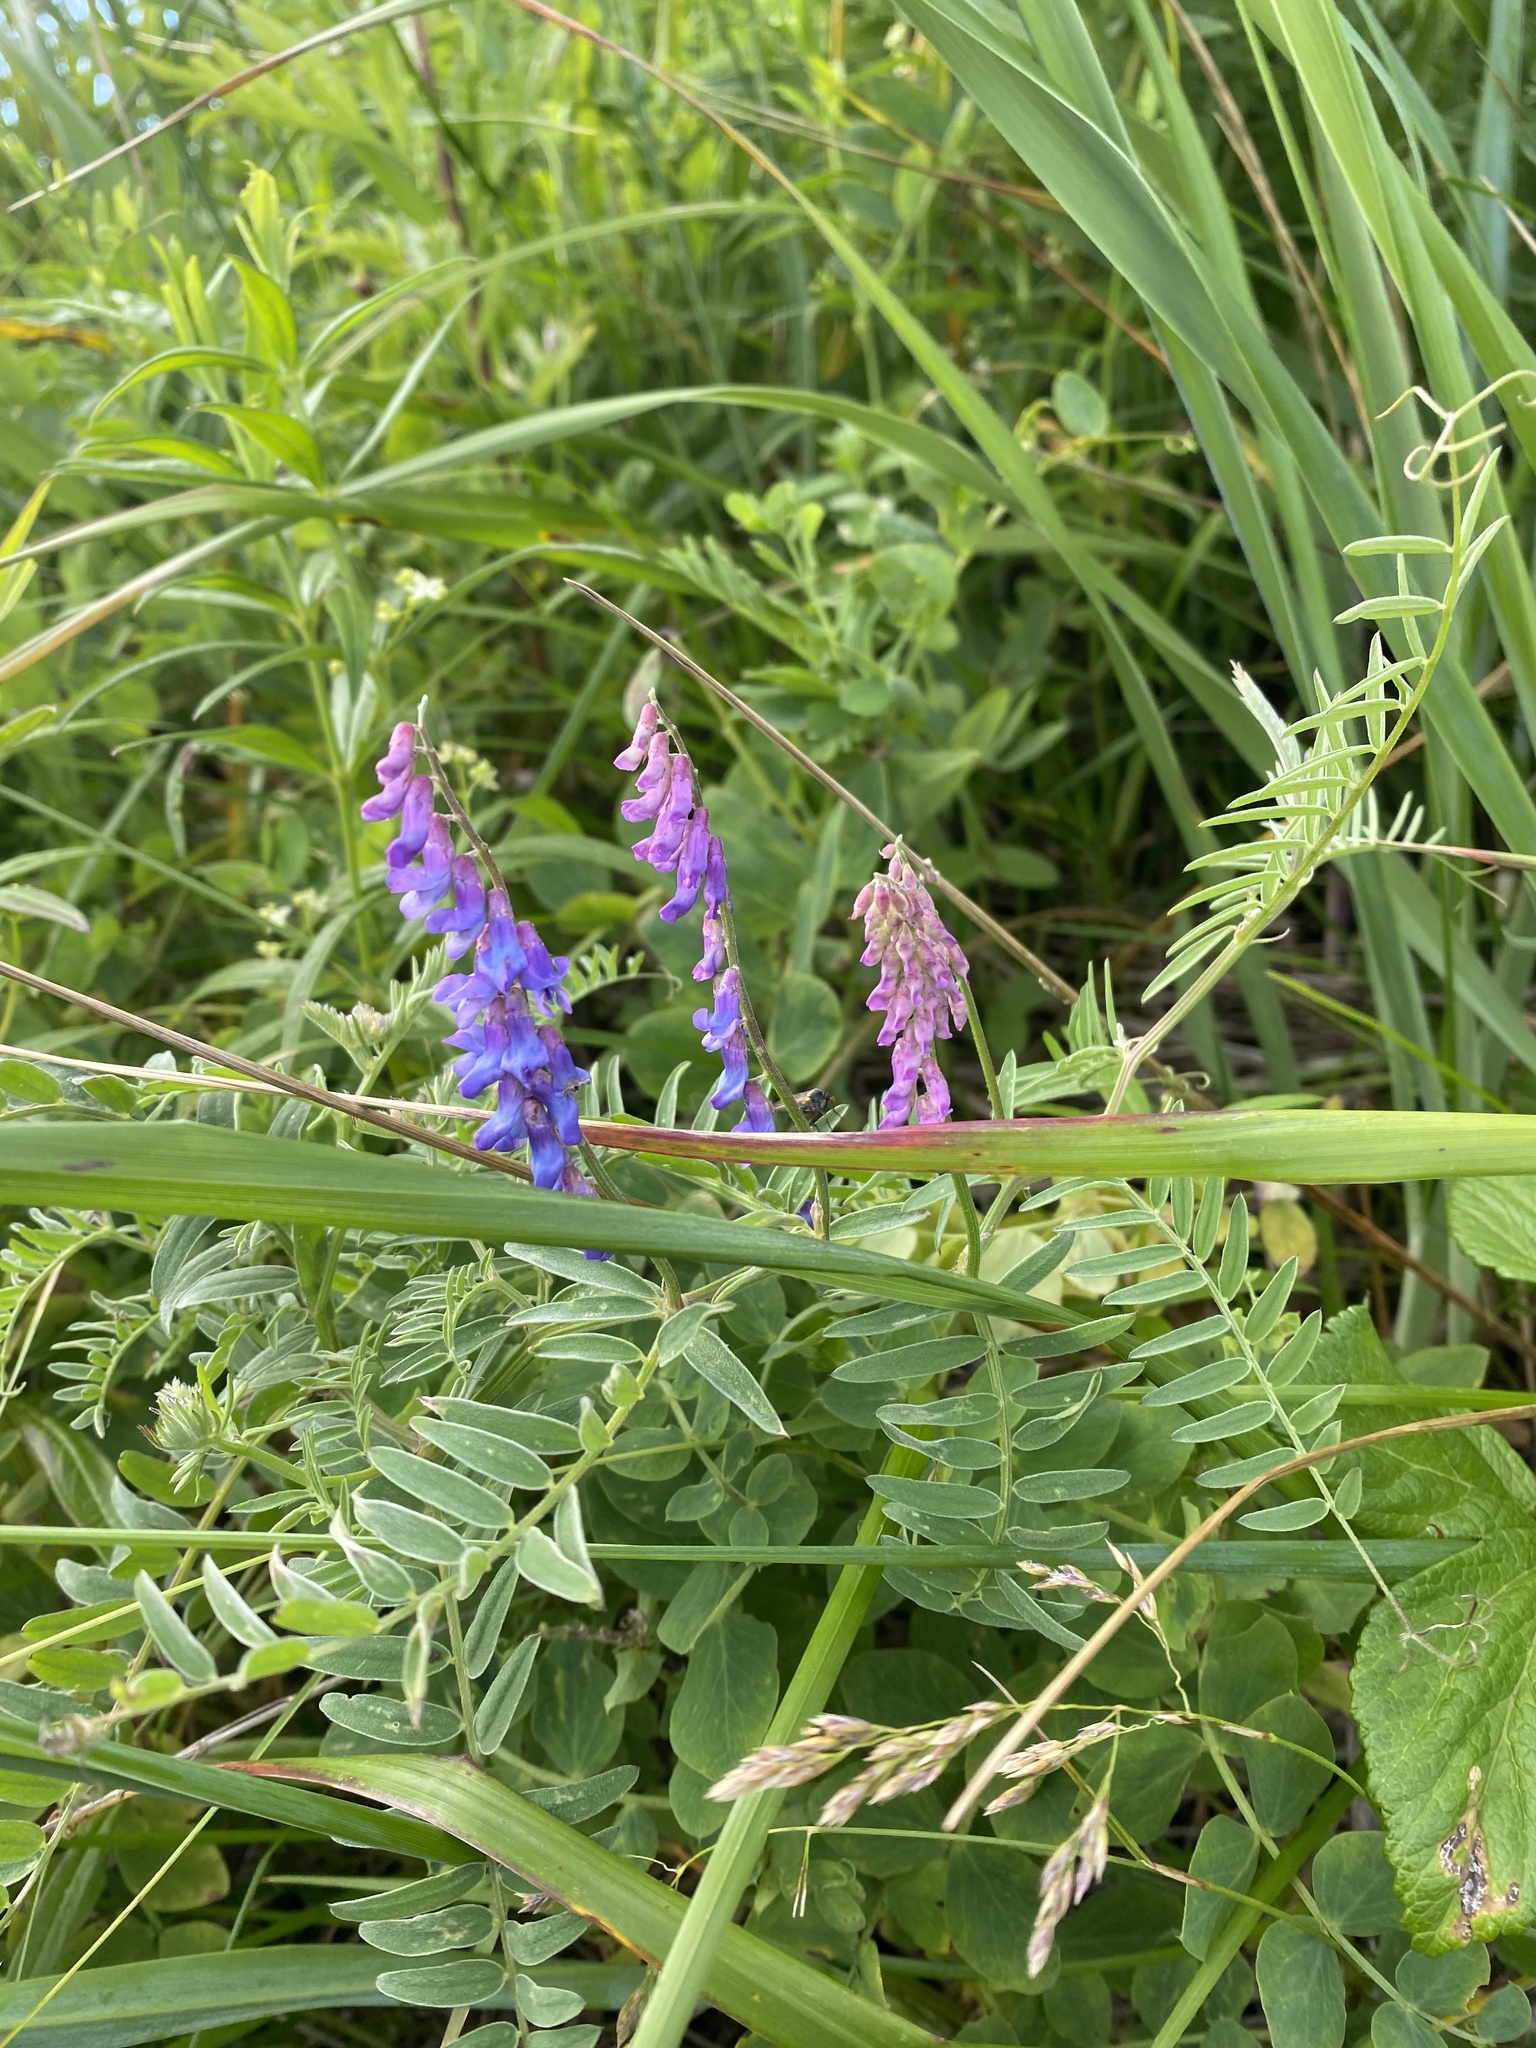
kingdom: Plantae
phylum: Tracheophyta
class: Magnoliopsida
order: Fabales
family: Fabaceae
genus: Vicia
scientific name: Vicia cracca
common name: Bird vetch
